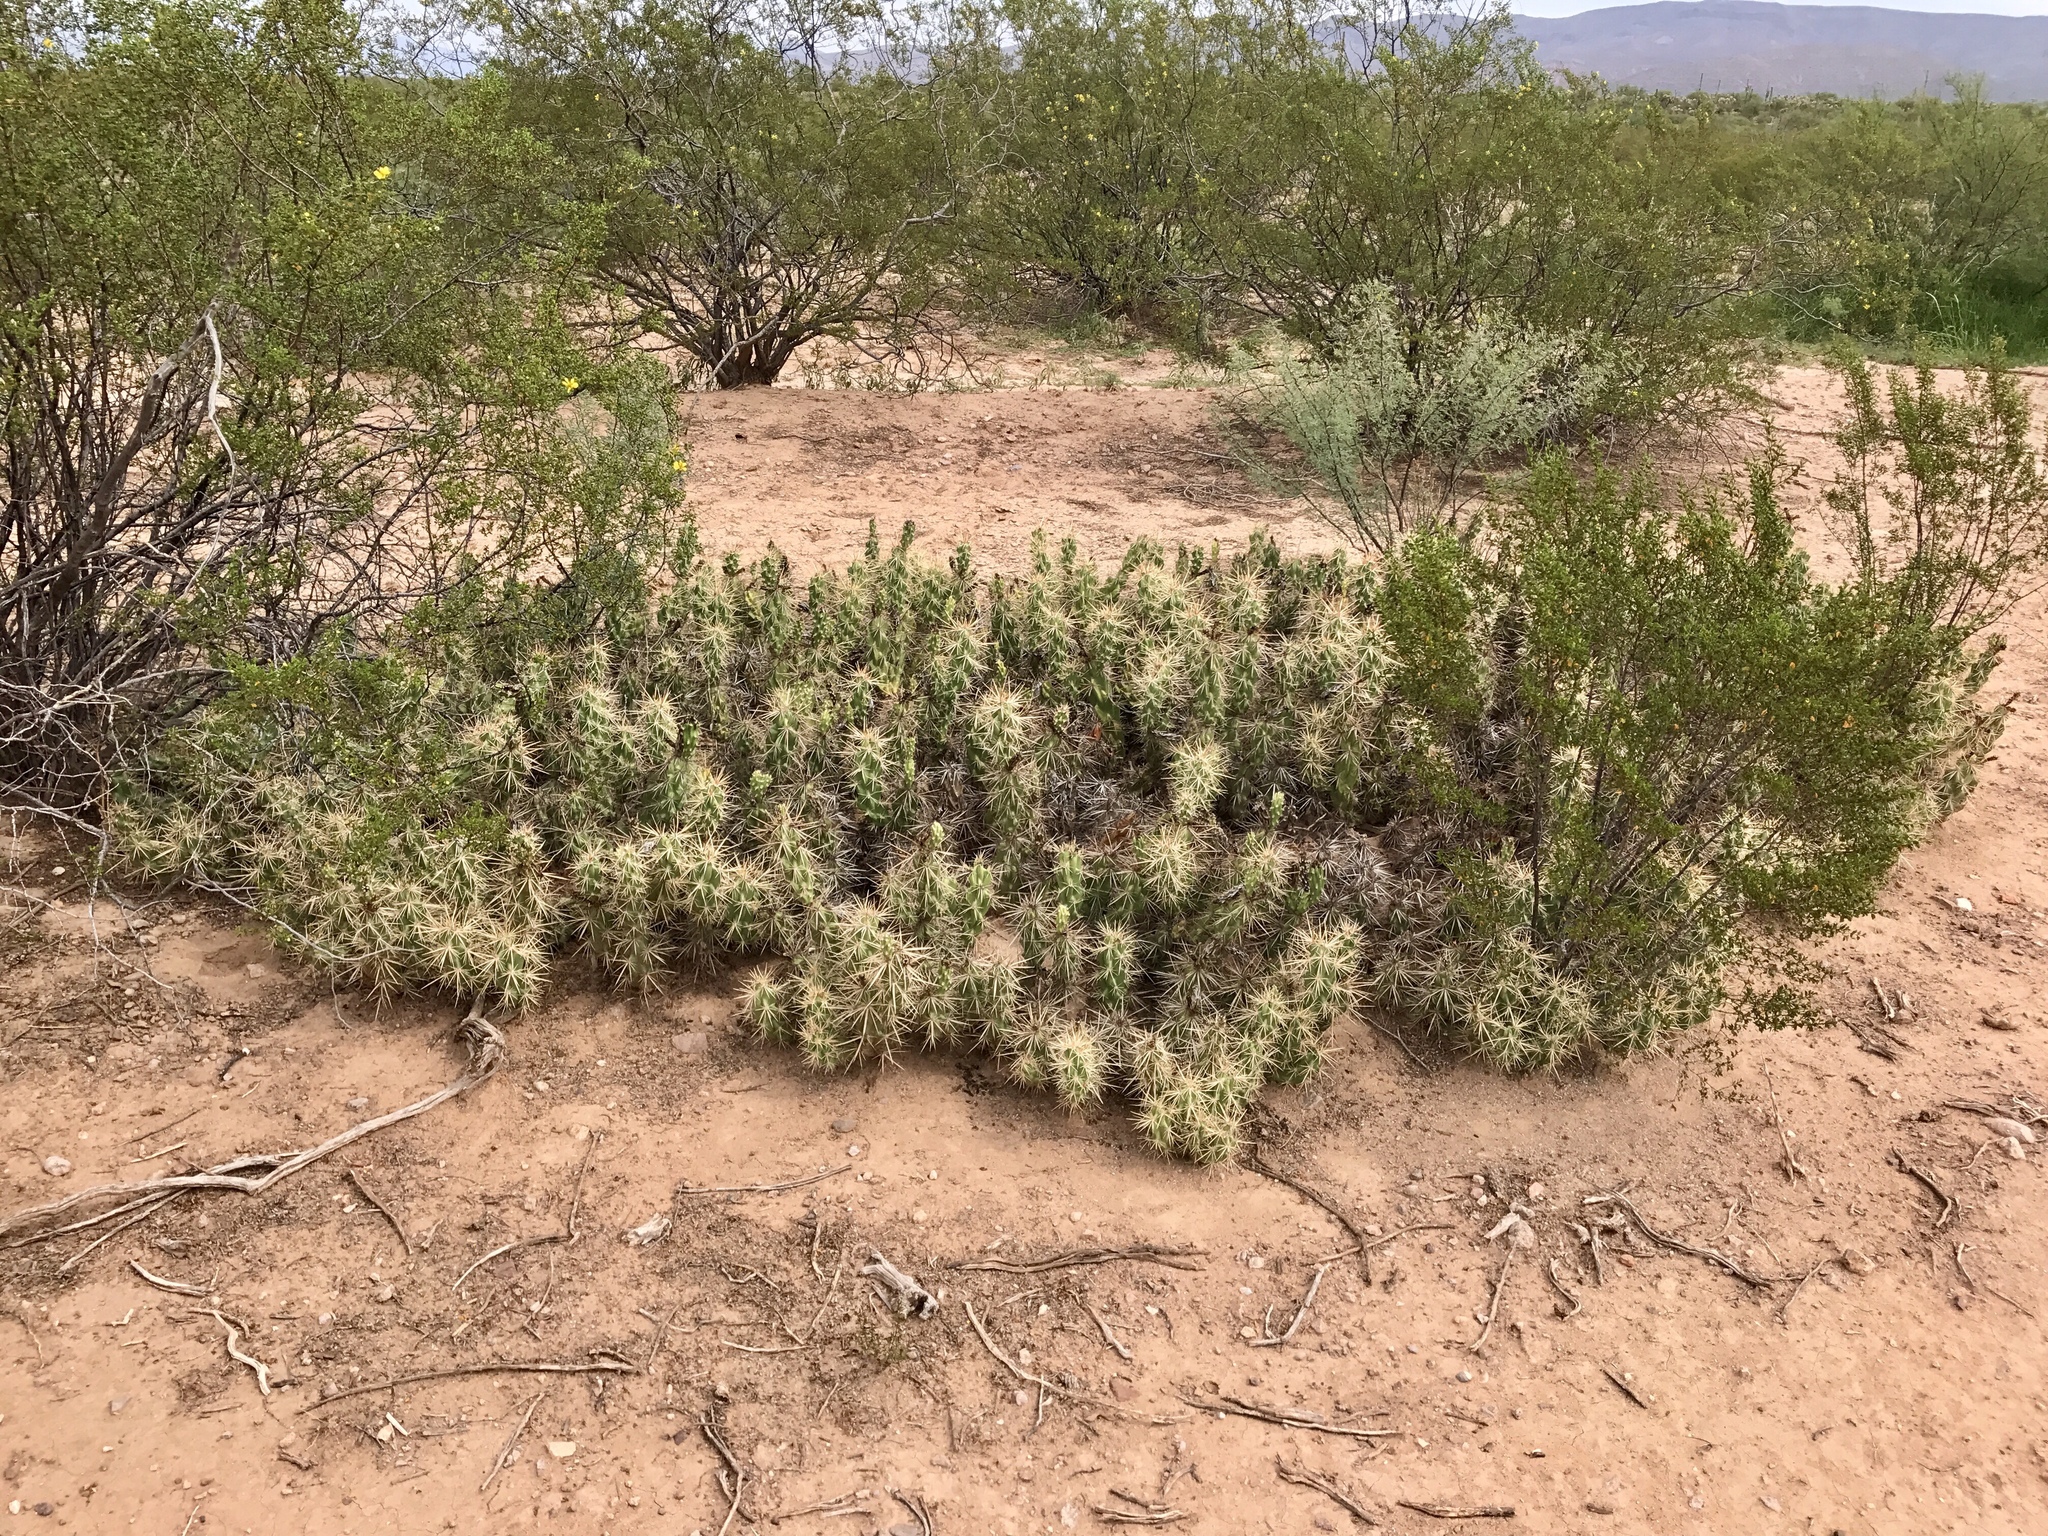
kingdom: Plantae
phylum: Tracheophyta
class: Magnoliopsida
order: Caryophyllales
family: Cactaceae
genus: Grusonia
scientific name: Grusonia emoryi
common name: Stanly's club cholla
